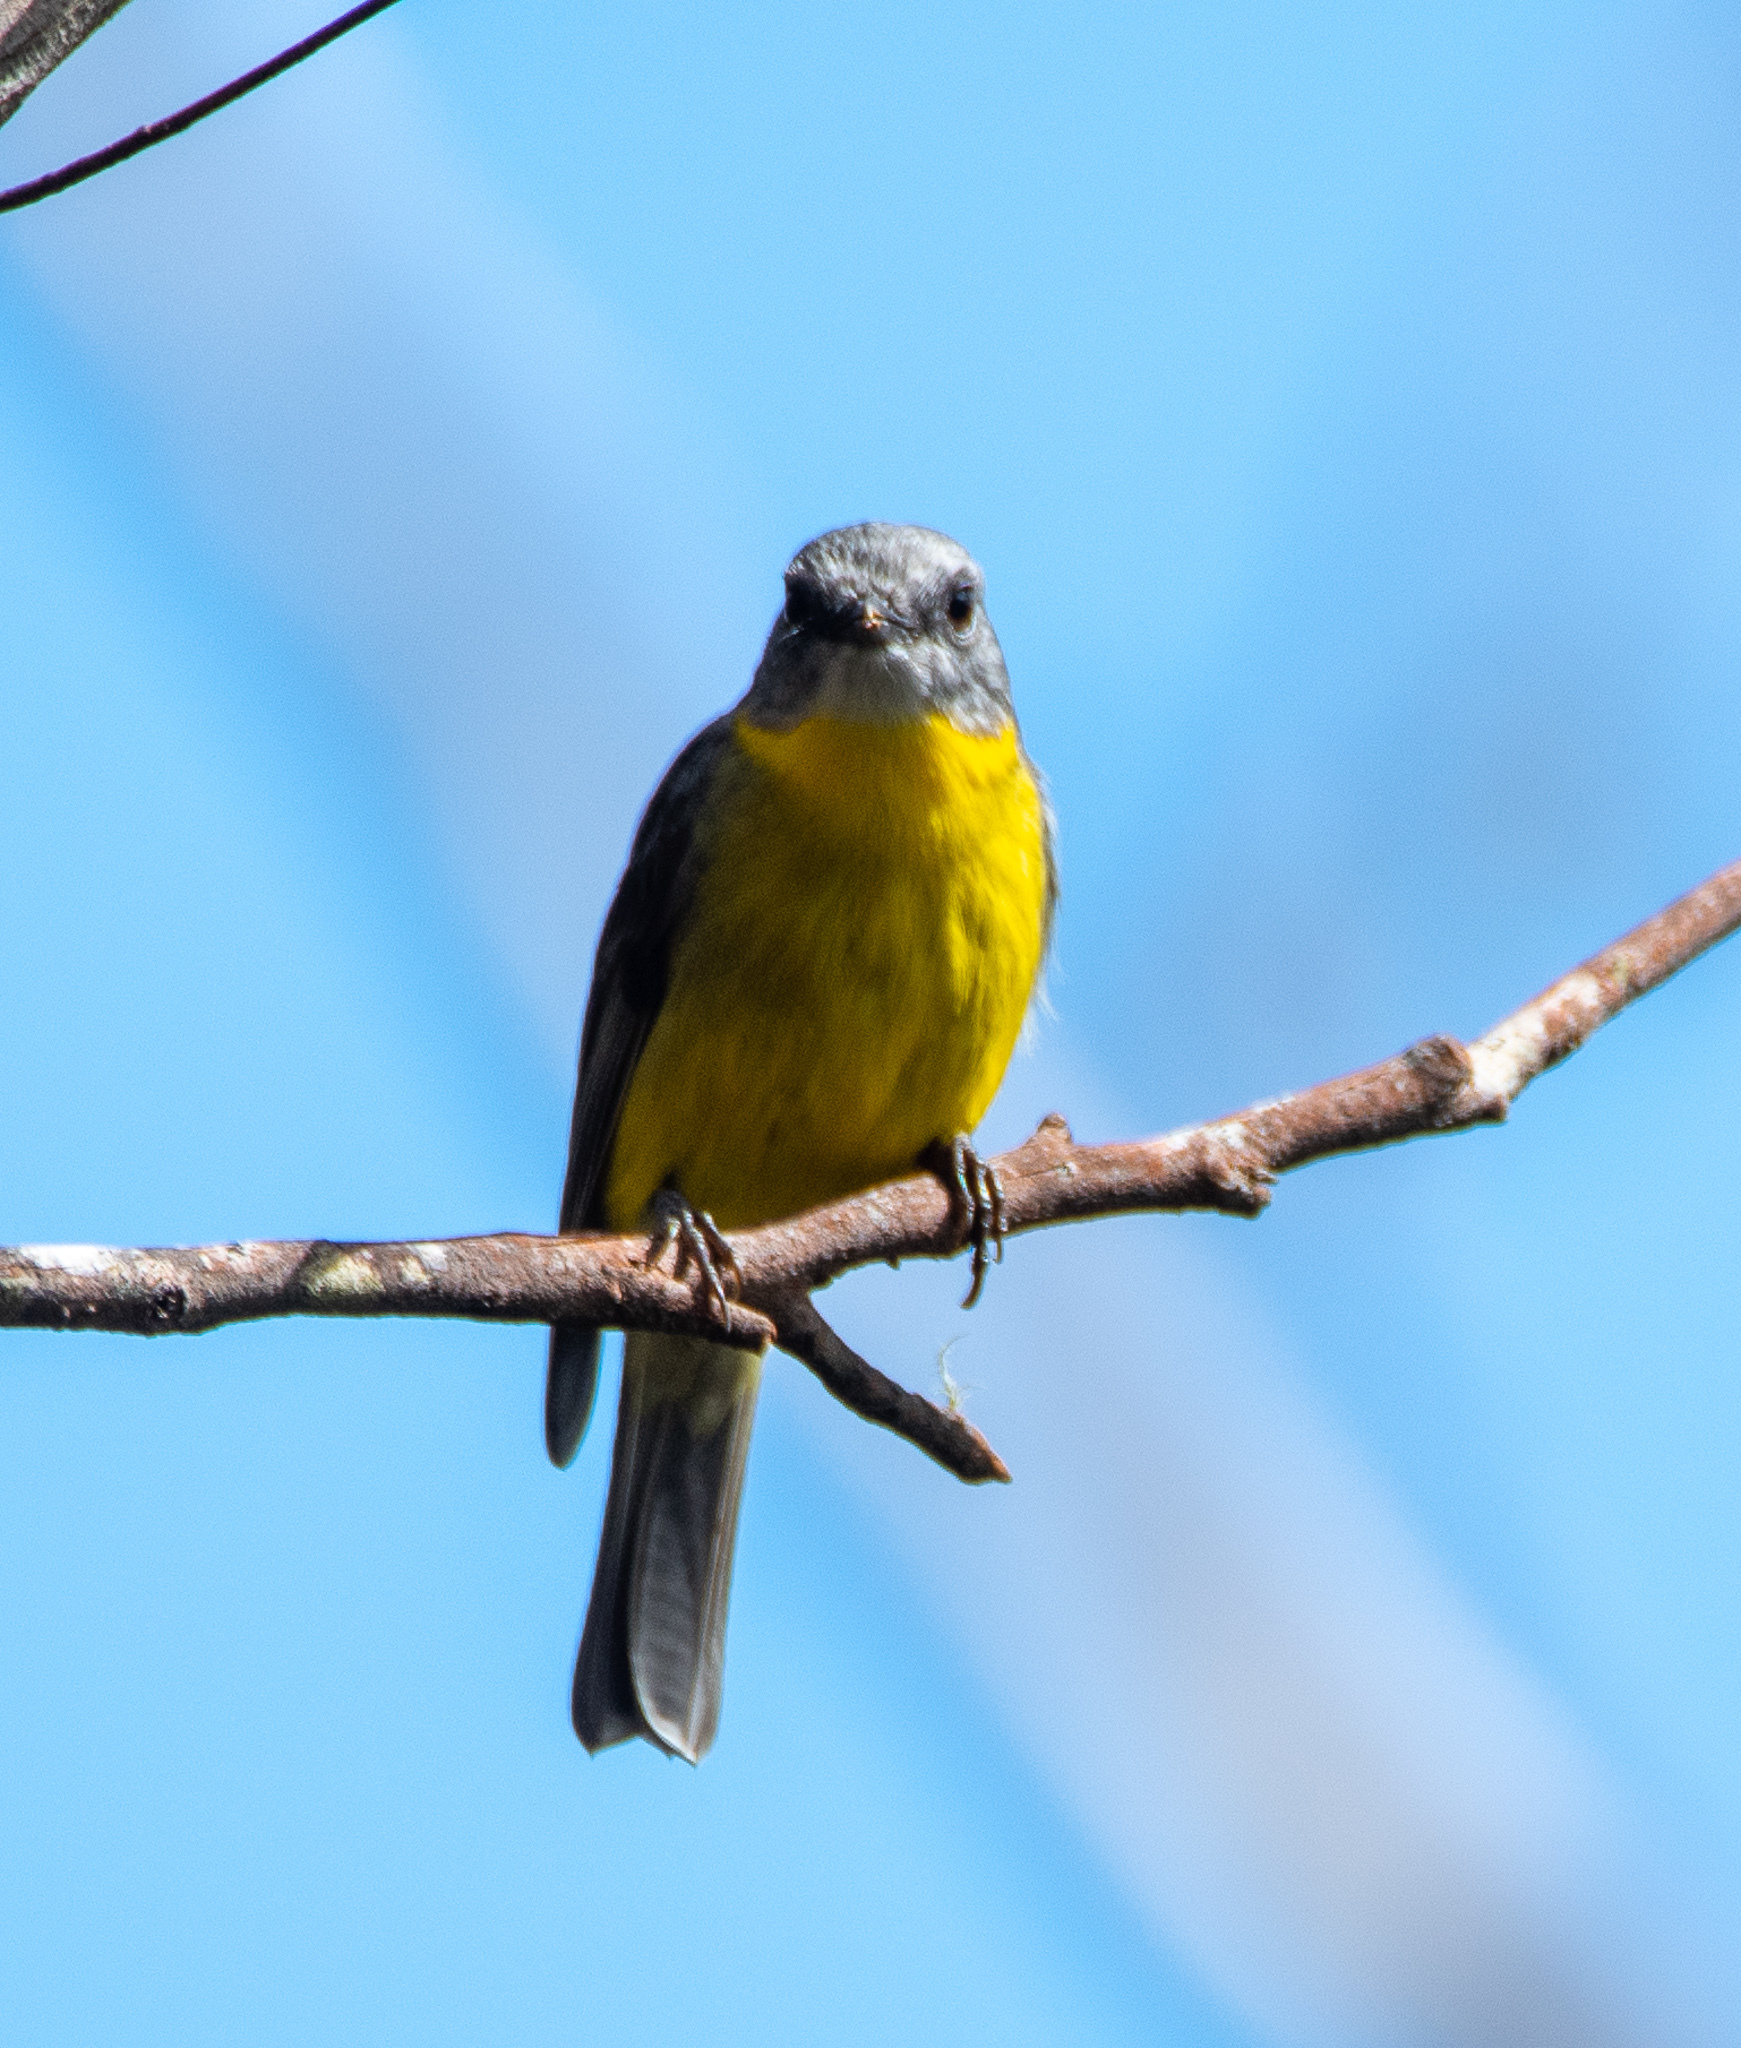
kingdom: Animalia
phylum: Chordata
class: Aves
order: Passeriformes
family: Petroicidae
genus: Eopsaltria
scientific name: Eopsaltria australis
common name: Eastern yellow robin
